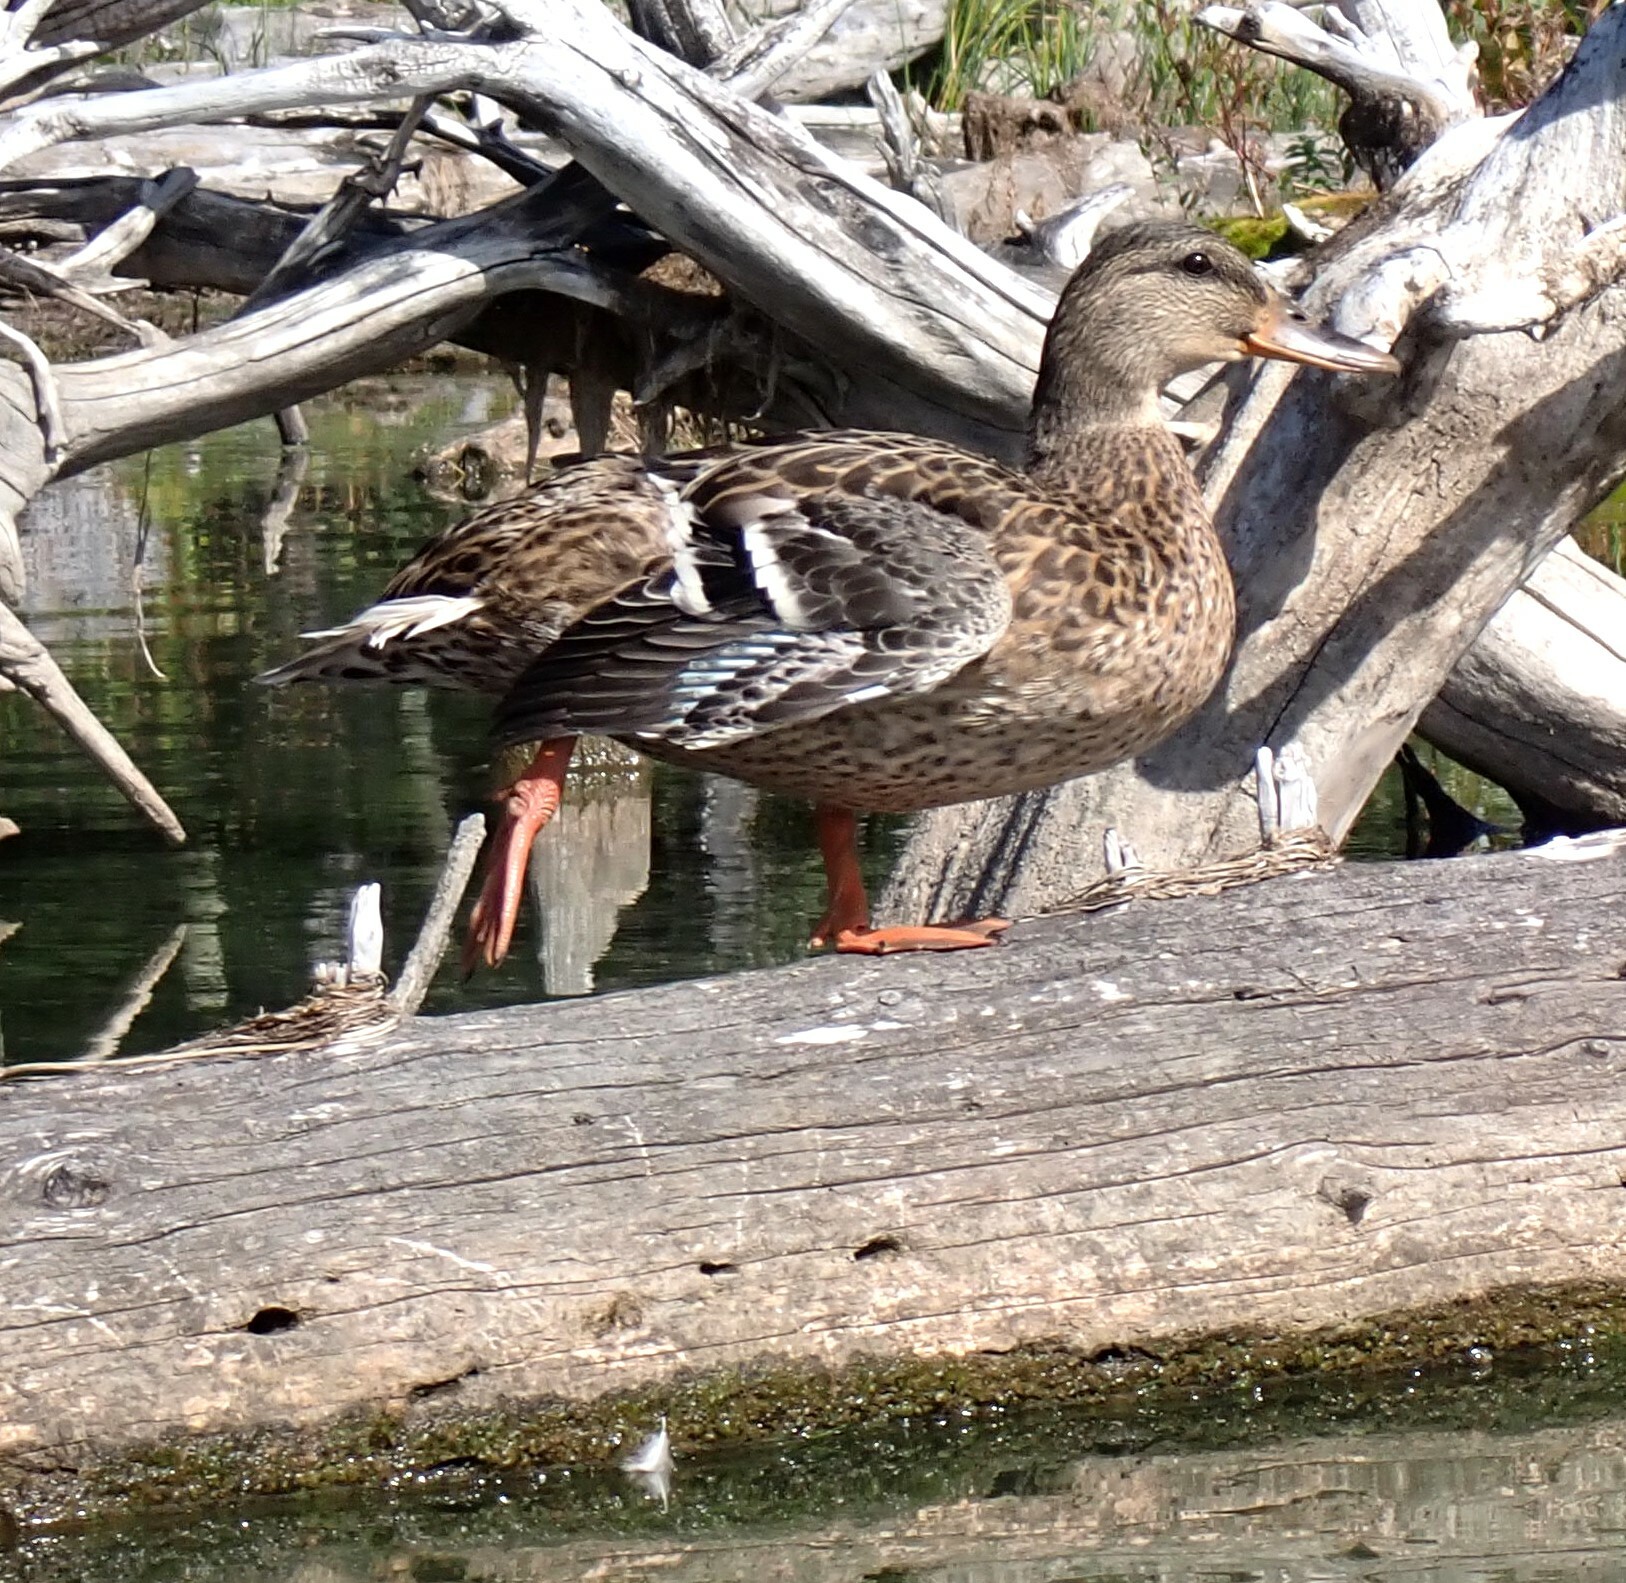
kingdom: Animalia
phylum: Chordata
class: Aves
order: Anseriformes
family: Anatidae
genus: Anas
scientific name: Anas platyrhynchos
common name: Mallard
